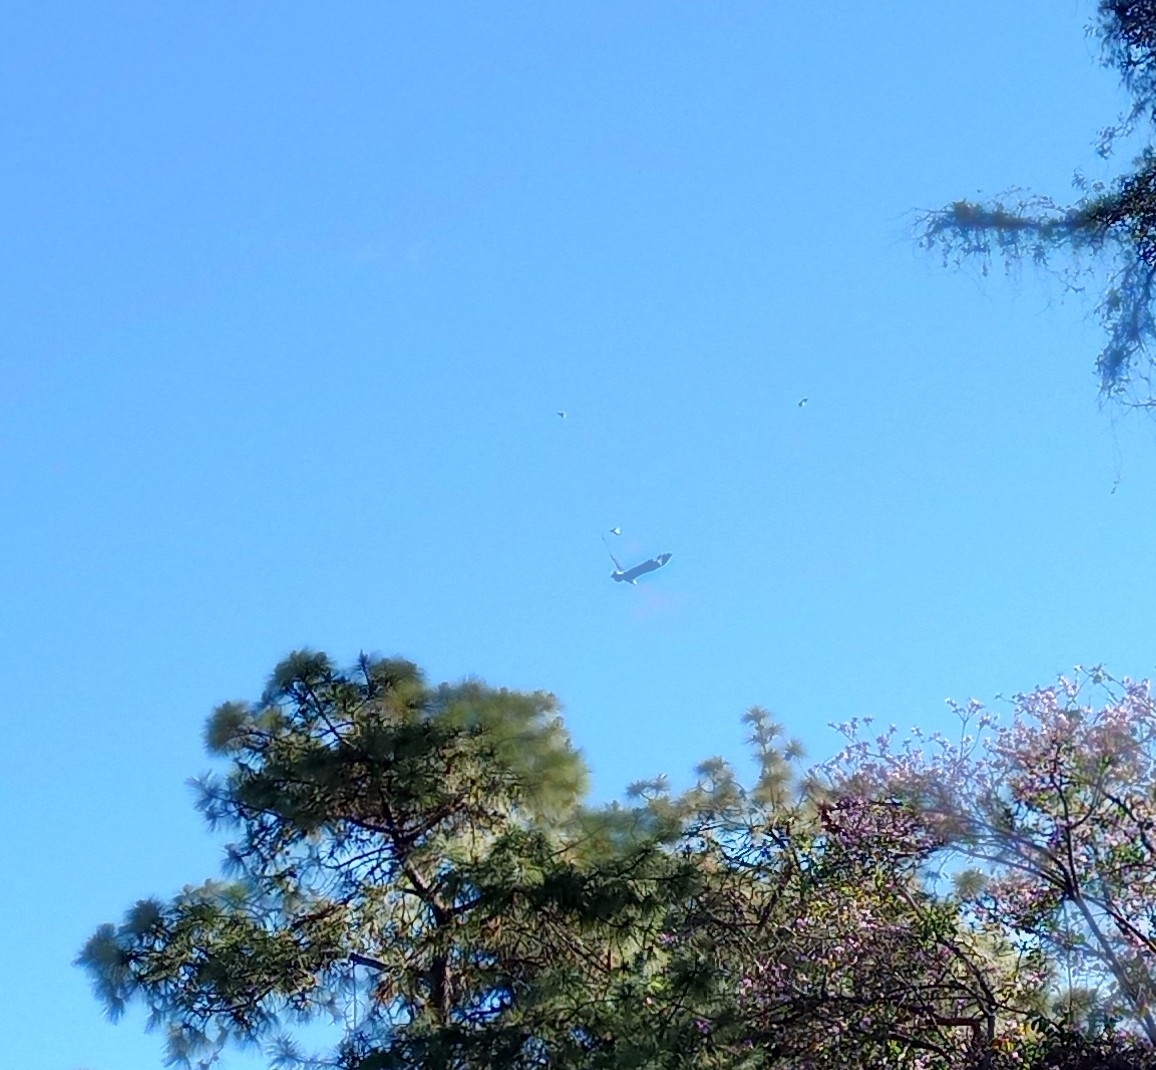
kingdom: Animalia
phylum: Chordata
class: Aves
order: Falconiformes
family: Falconidae
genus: Caracara
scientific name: Caracara plancus
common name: Southern caracara
